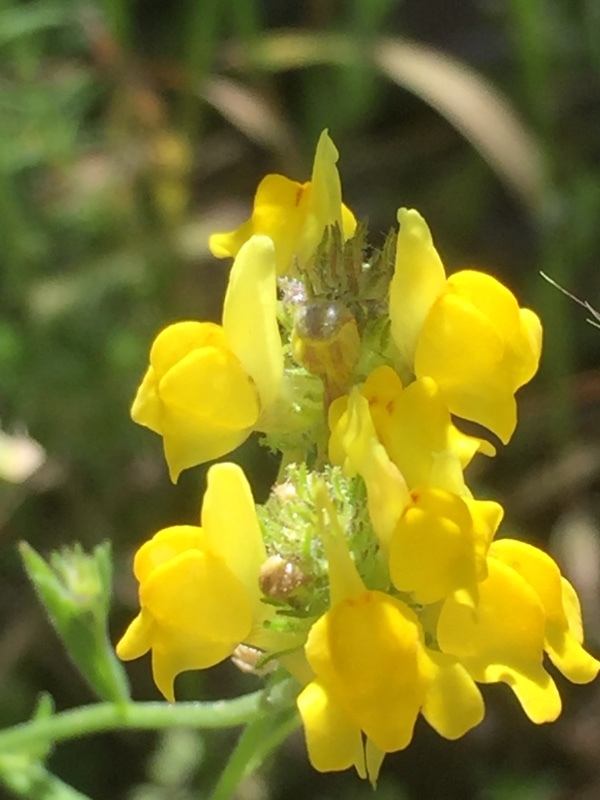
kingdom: Plantae
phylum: Tracheophyta
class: Magnoliopsida
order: Lamiales
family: Plantaginaceae
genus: Linaria
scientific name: Linaria saxatilis
